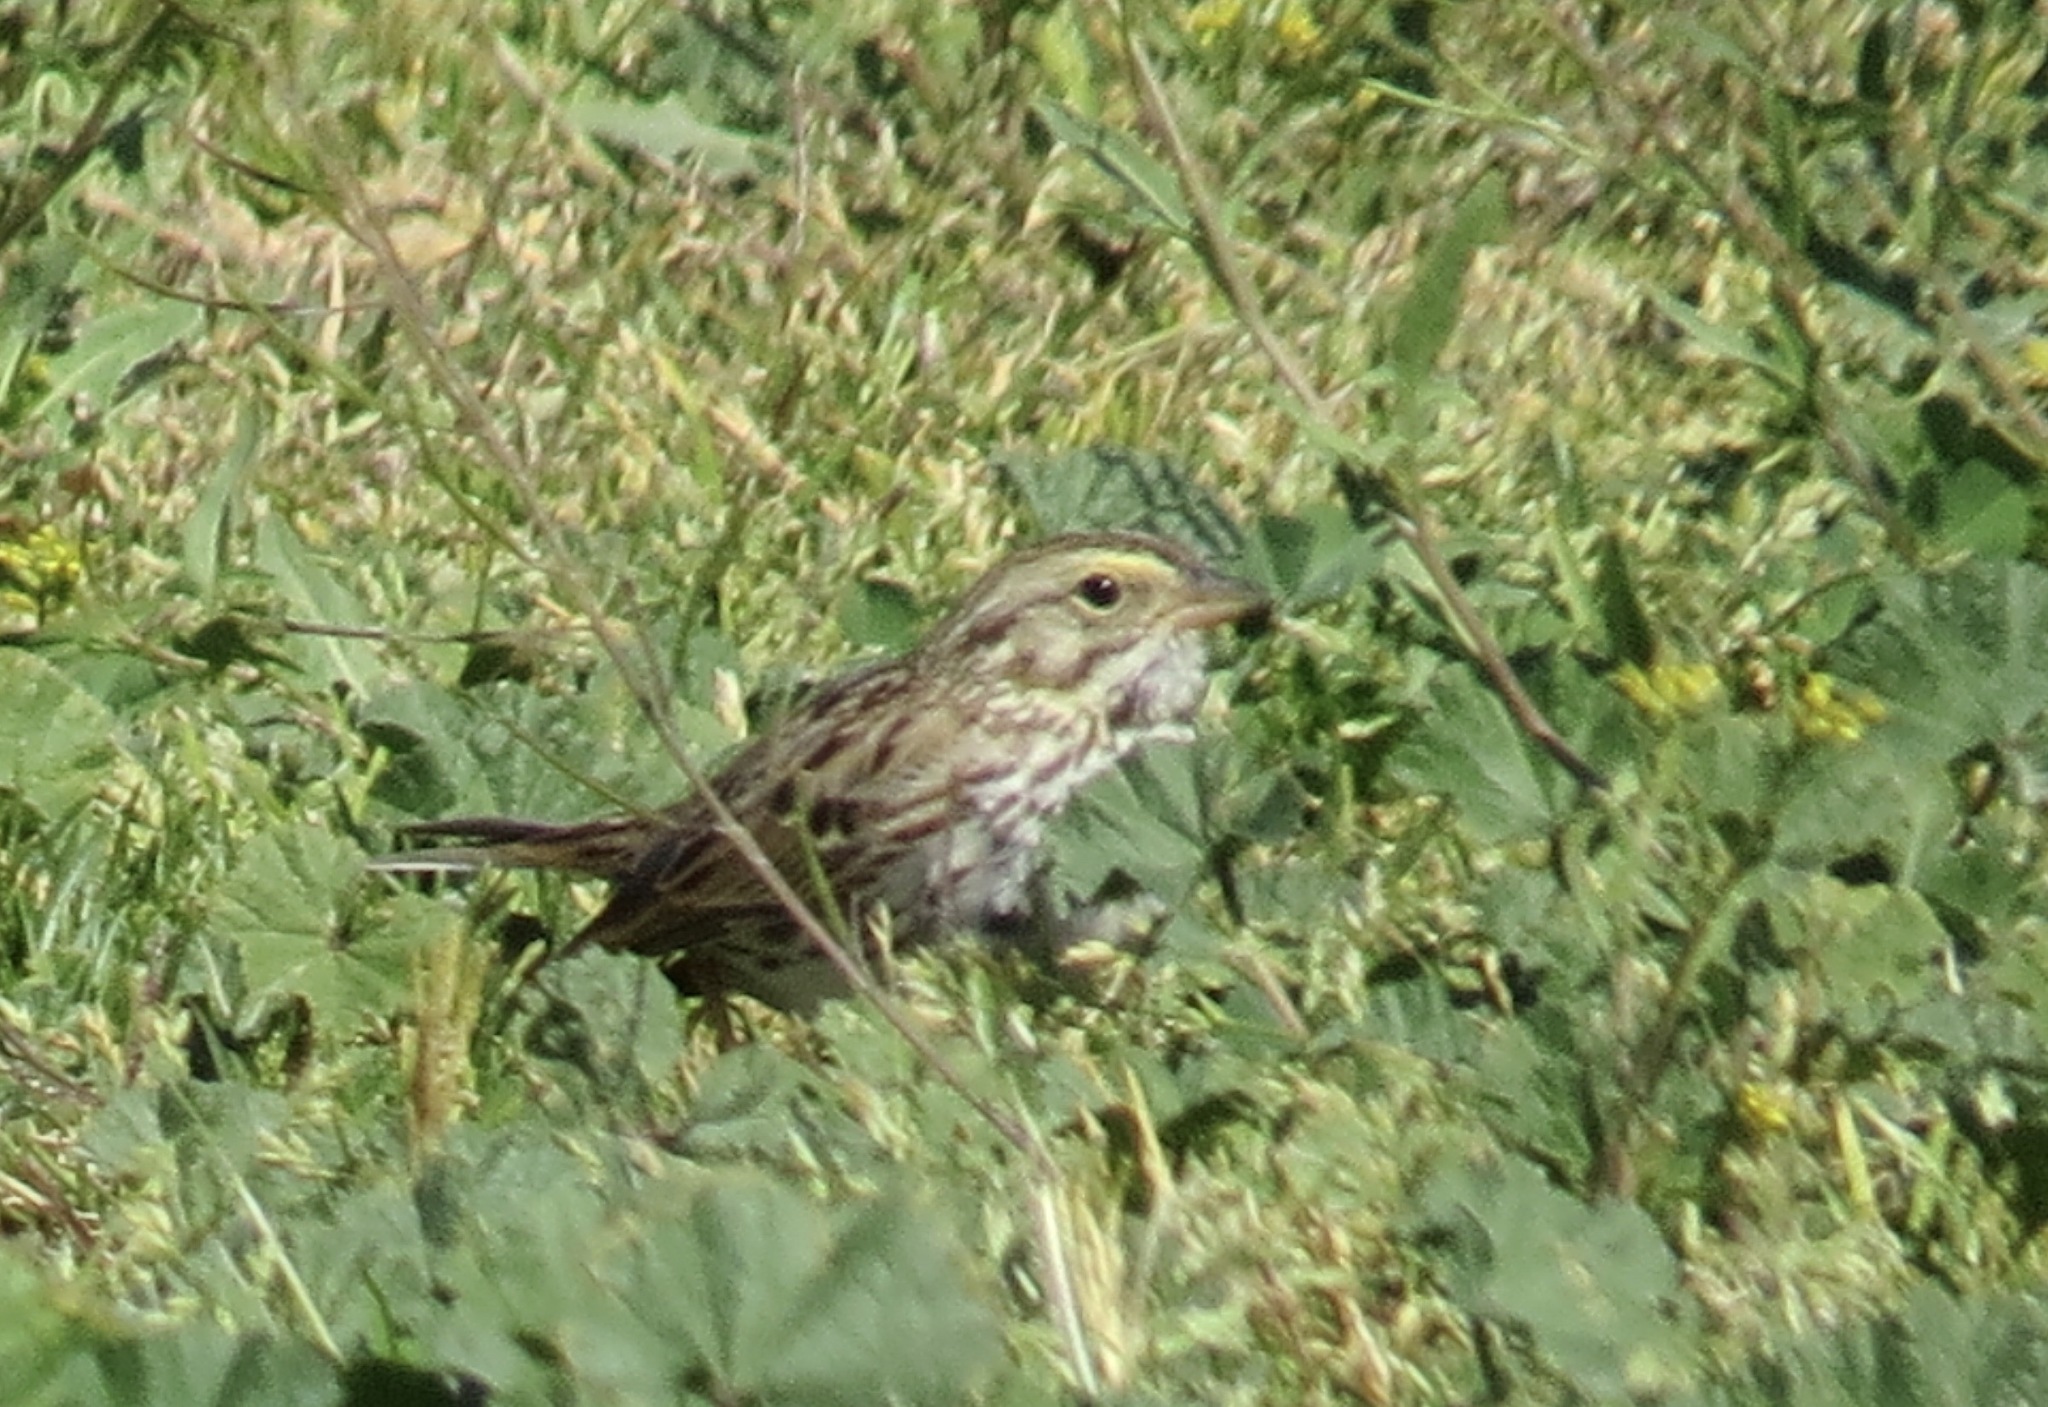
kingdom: Animalia
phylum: Chordata
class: Aves
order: Passeriformes
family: Passerellidae
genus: Passerculus
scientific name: Passerculus sandwichensis
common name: Savannah sparrow
